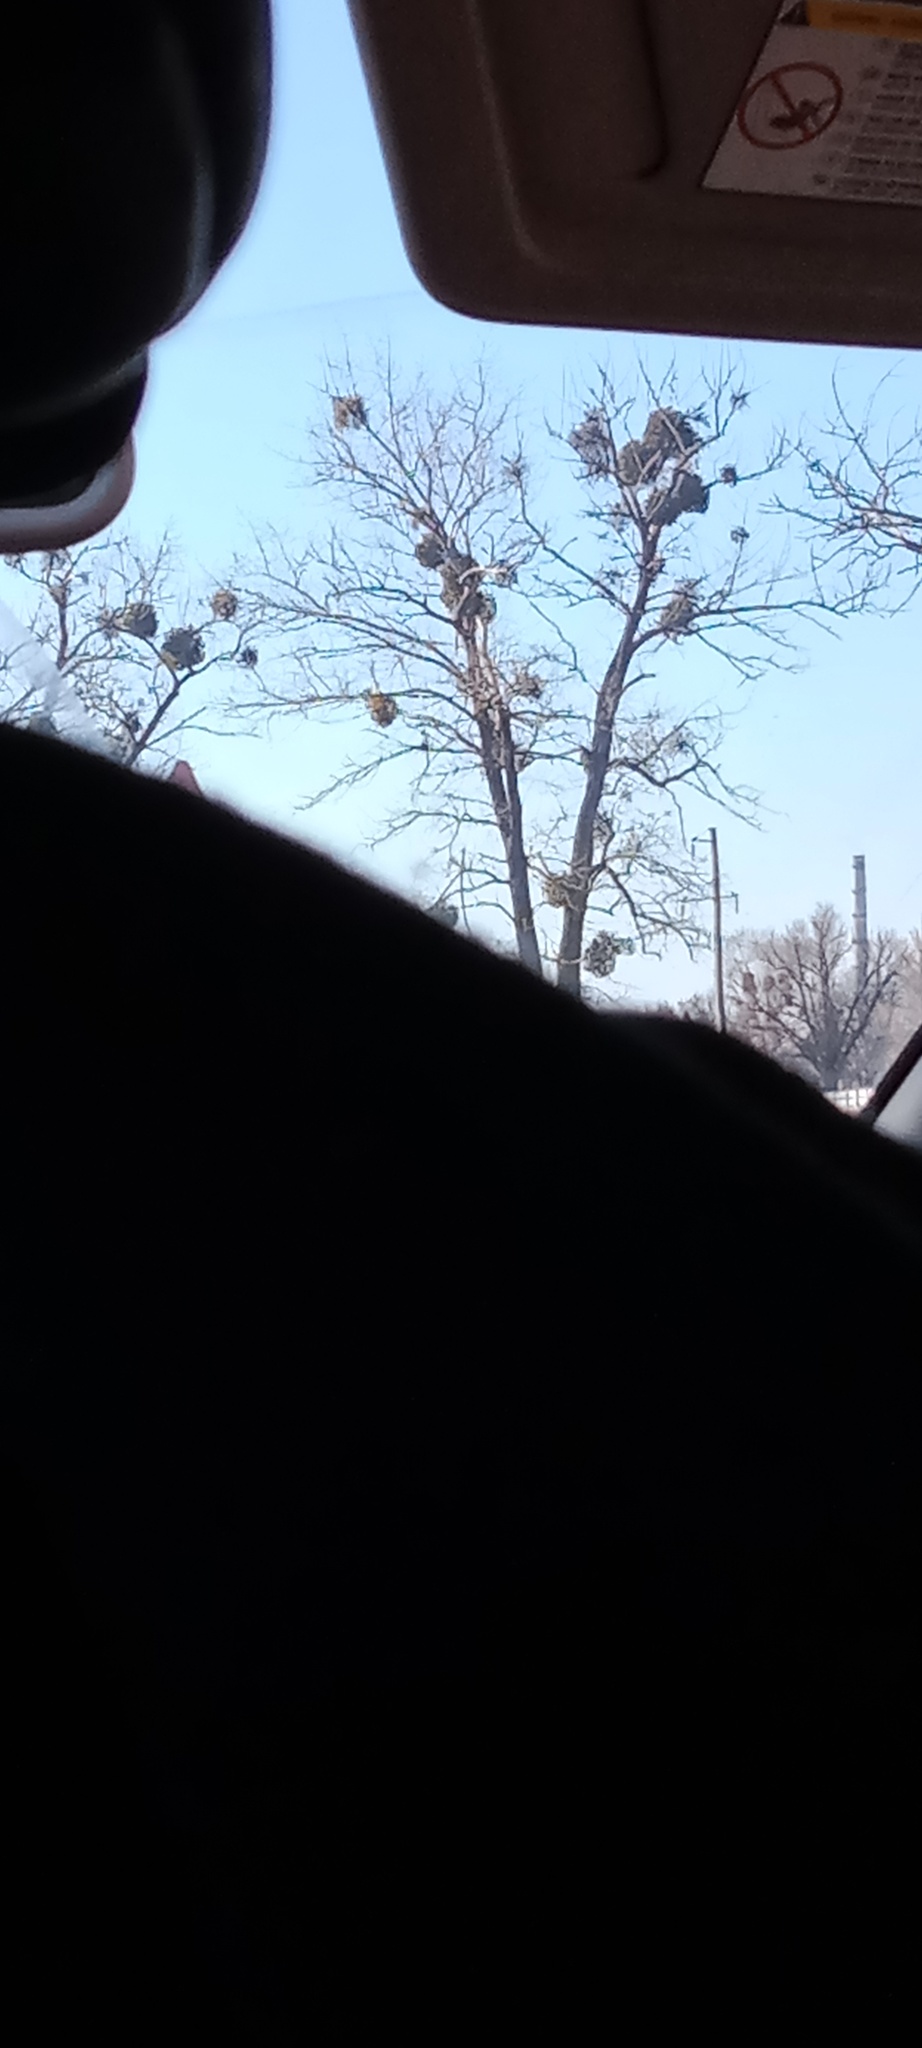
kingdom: Plantae
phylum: Tracheophyta
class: Magnoliopsida
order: Santalales
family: Viscaceae
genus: Viscum
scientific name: Viscum album
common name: Mistletoe
